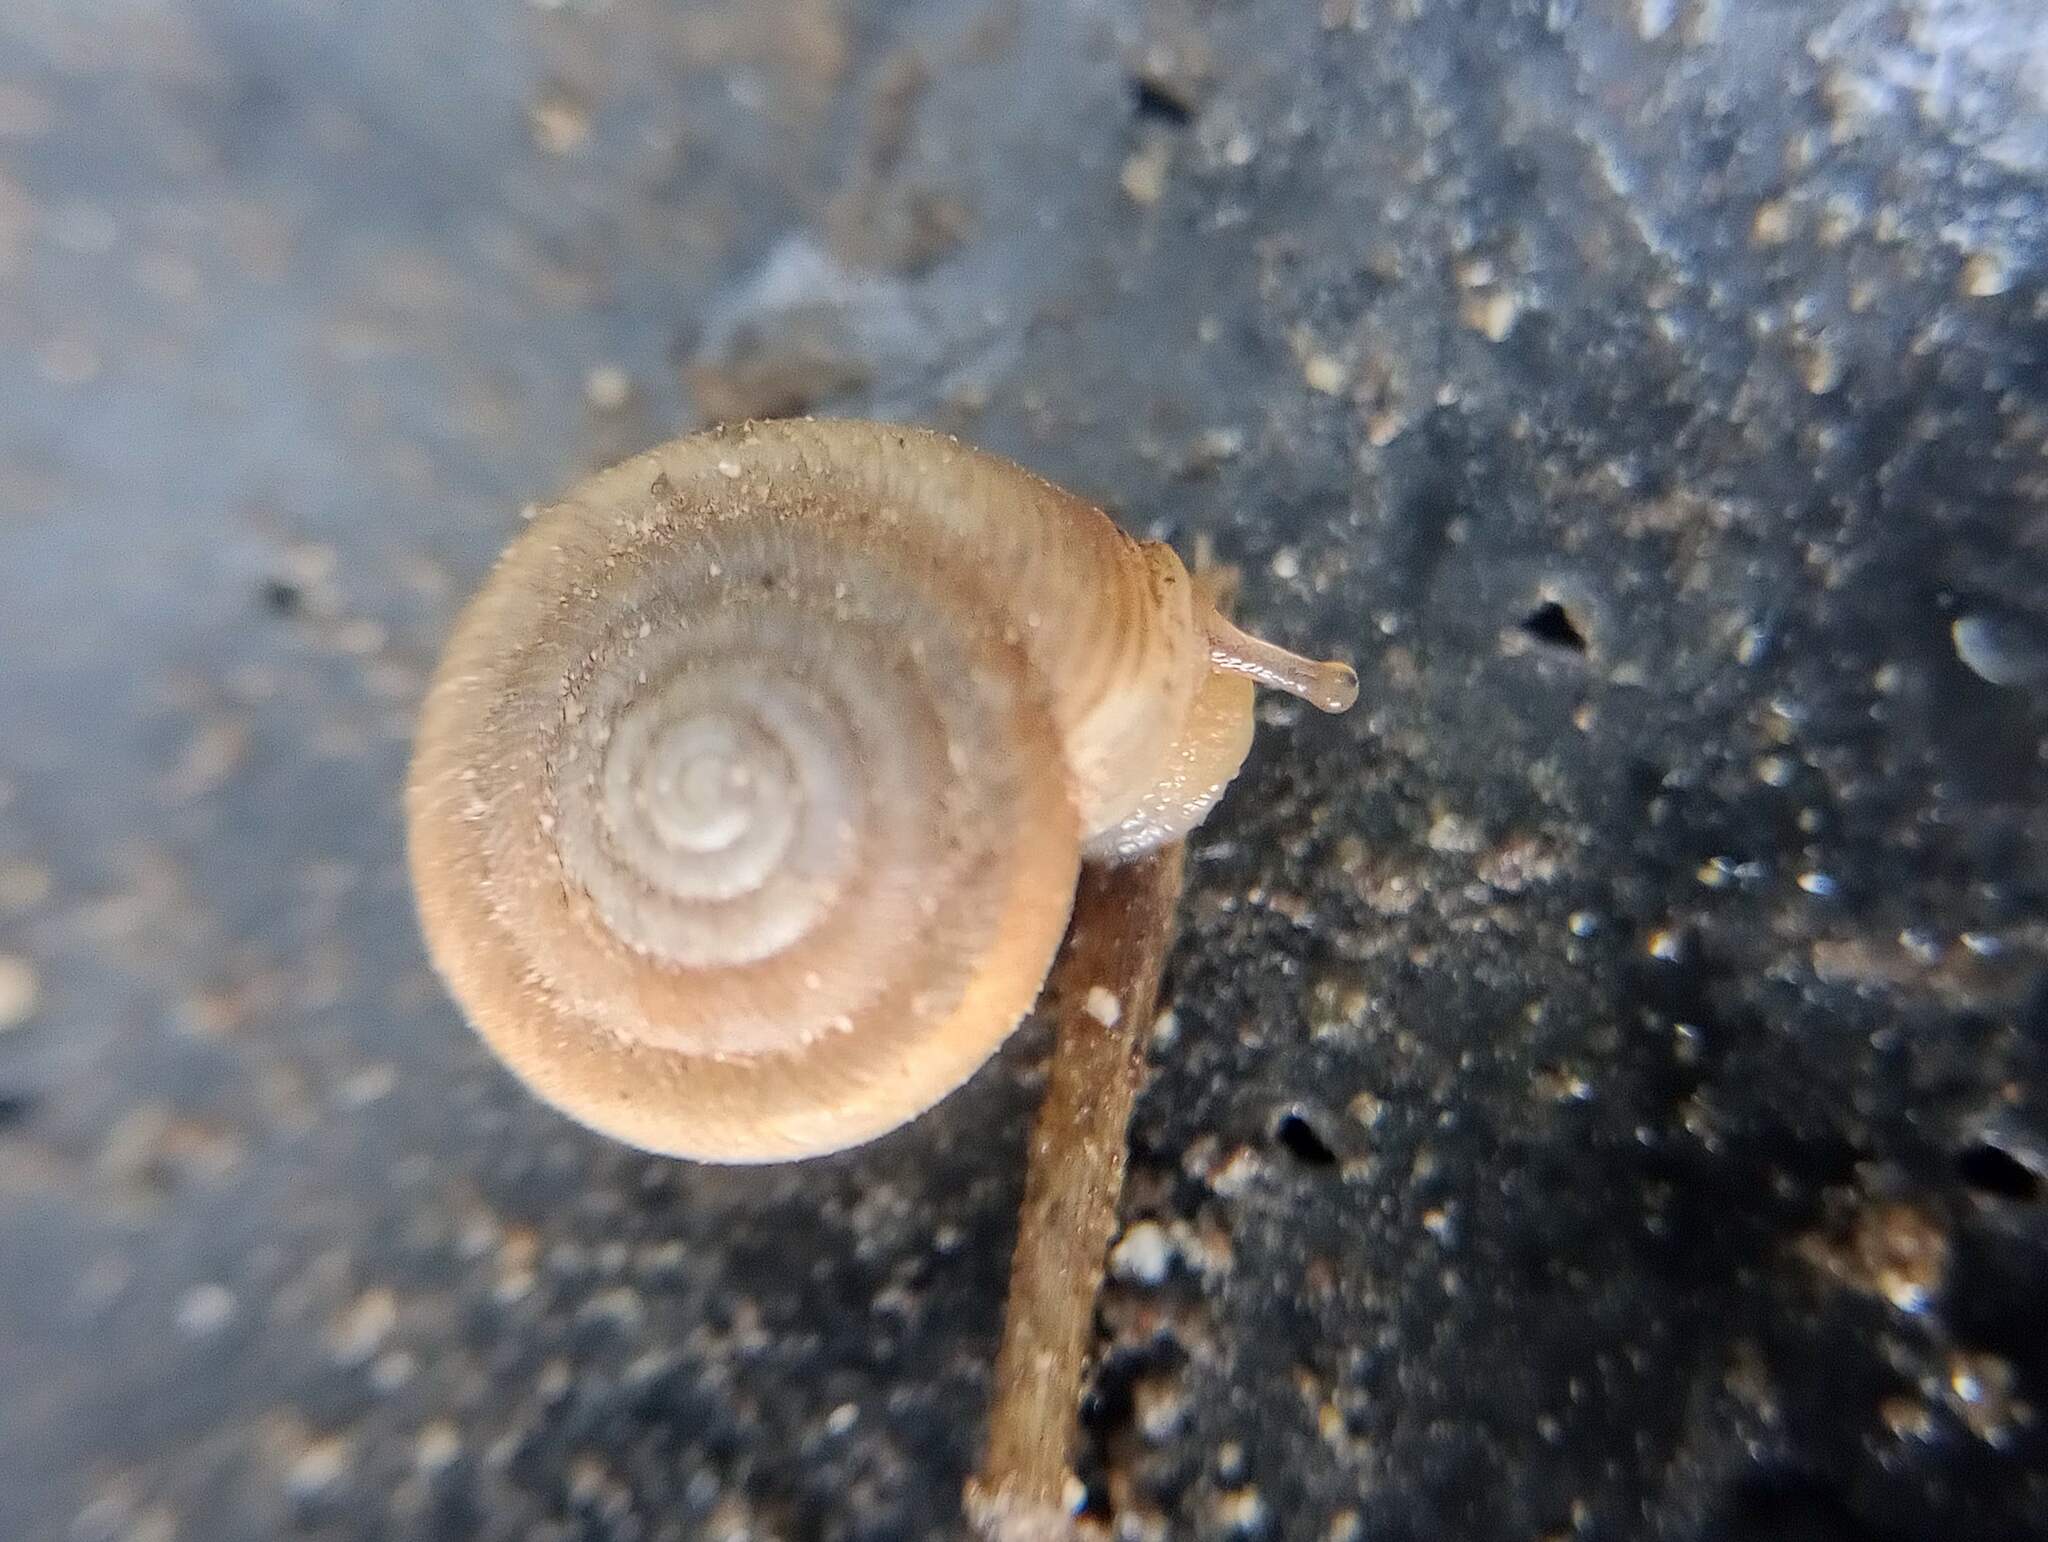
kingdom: Animalia
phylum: Mollusca
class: Gastropoda
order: Stylommatophora
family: Polygyridae
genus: Polygyra
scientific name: Polygyra cereolus
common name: Southern flatcone snail
